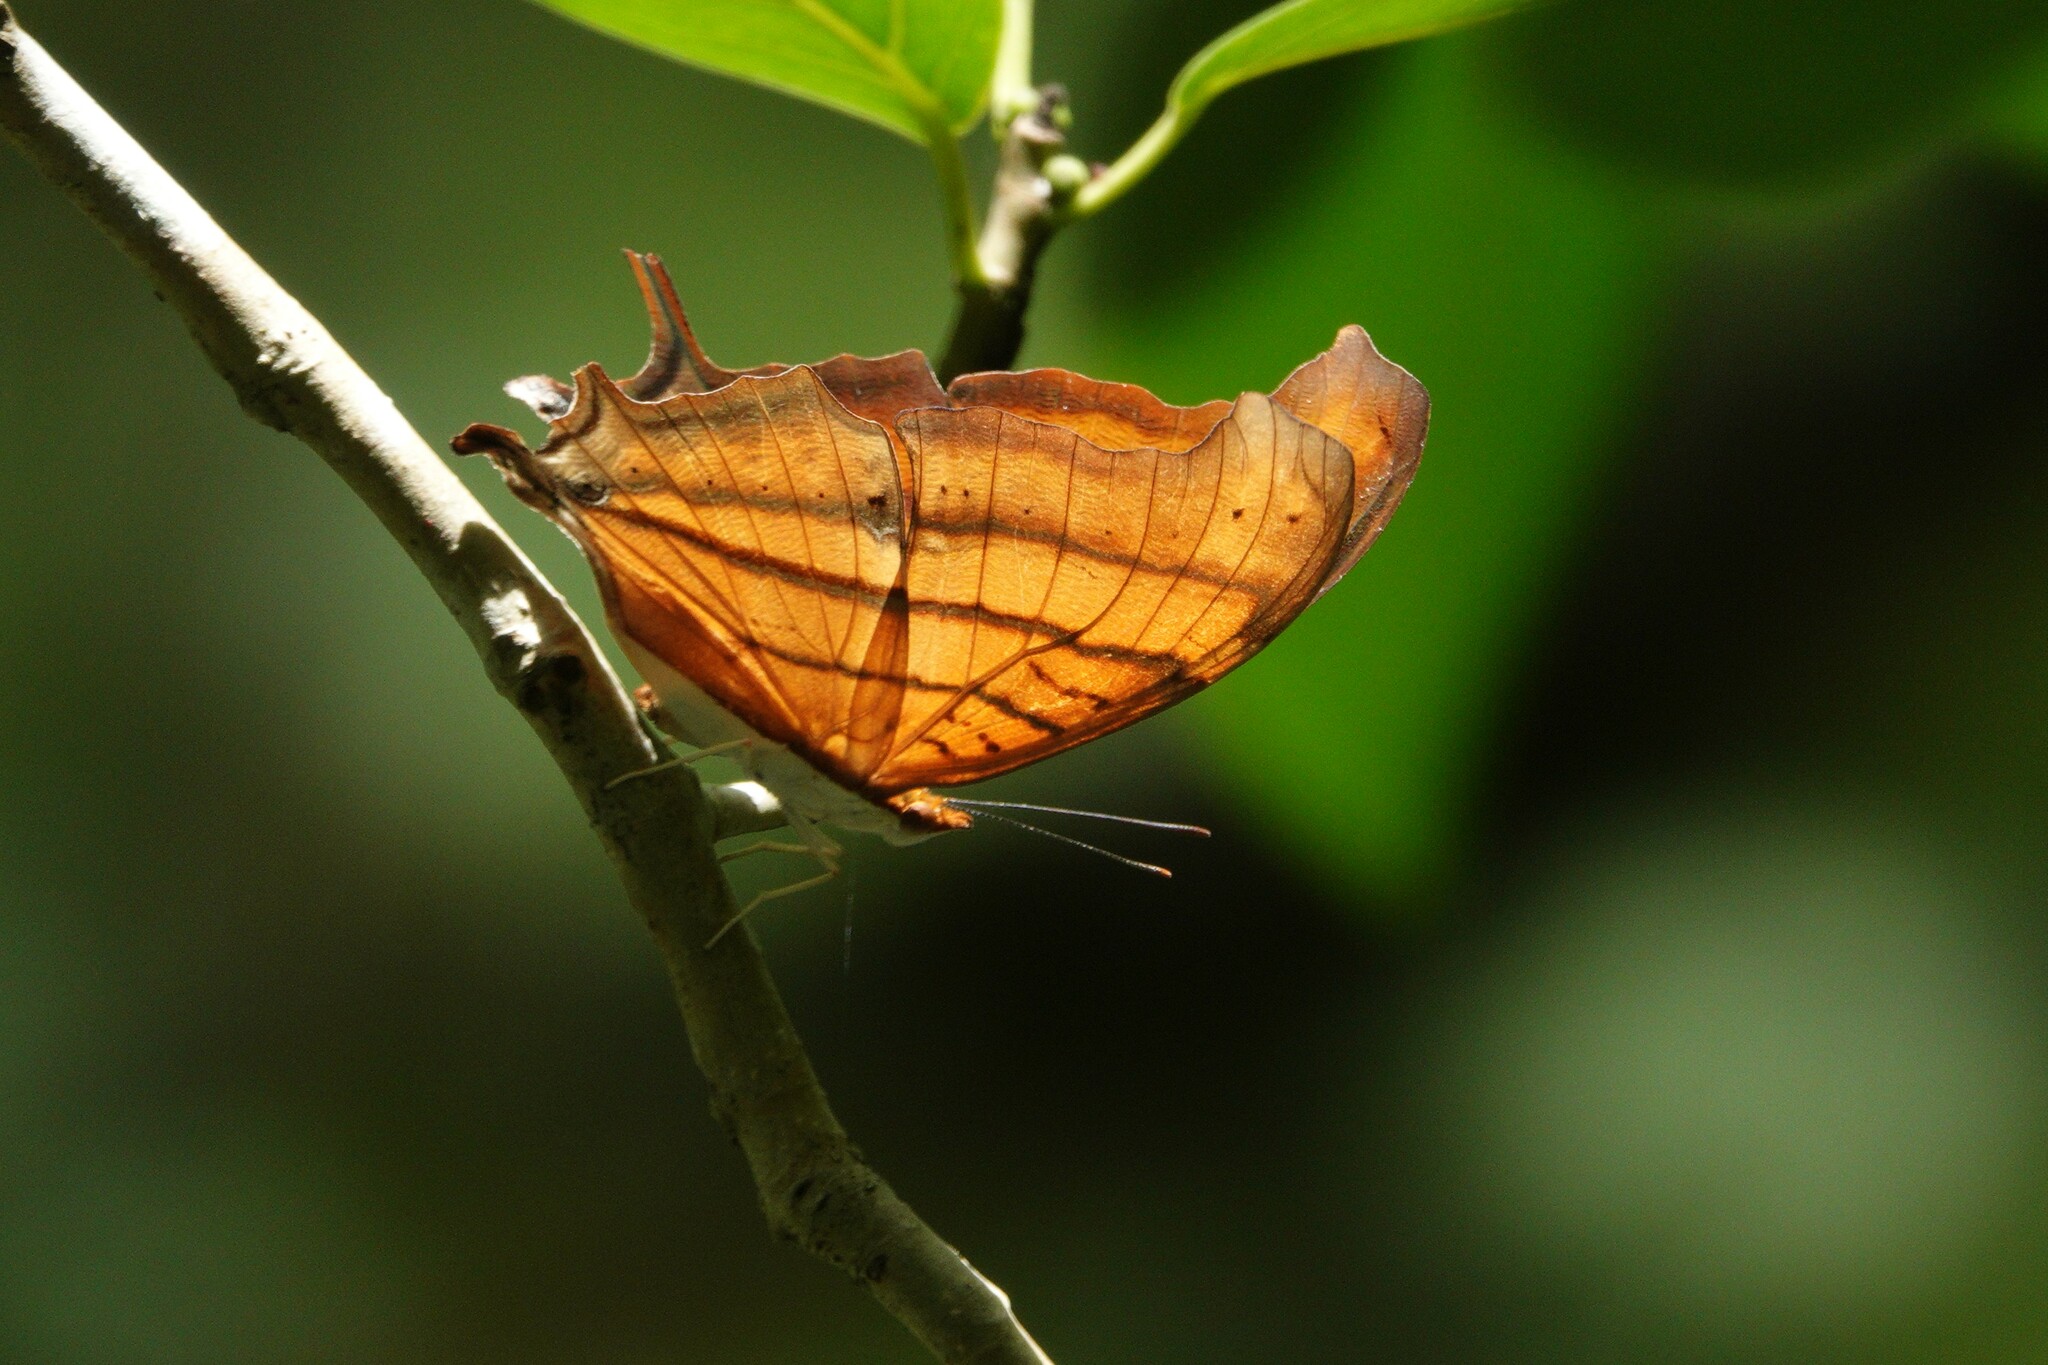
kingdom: Animalia
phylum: Arthropoda
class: Insecta
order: Lepidoptera
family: Nymphalidae
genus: Marpesia
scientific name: Marpesia petreus
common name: Red dagger wing
